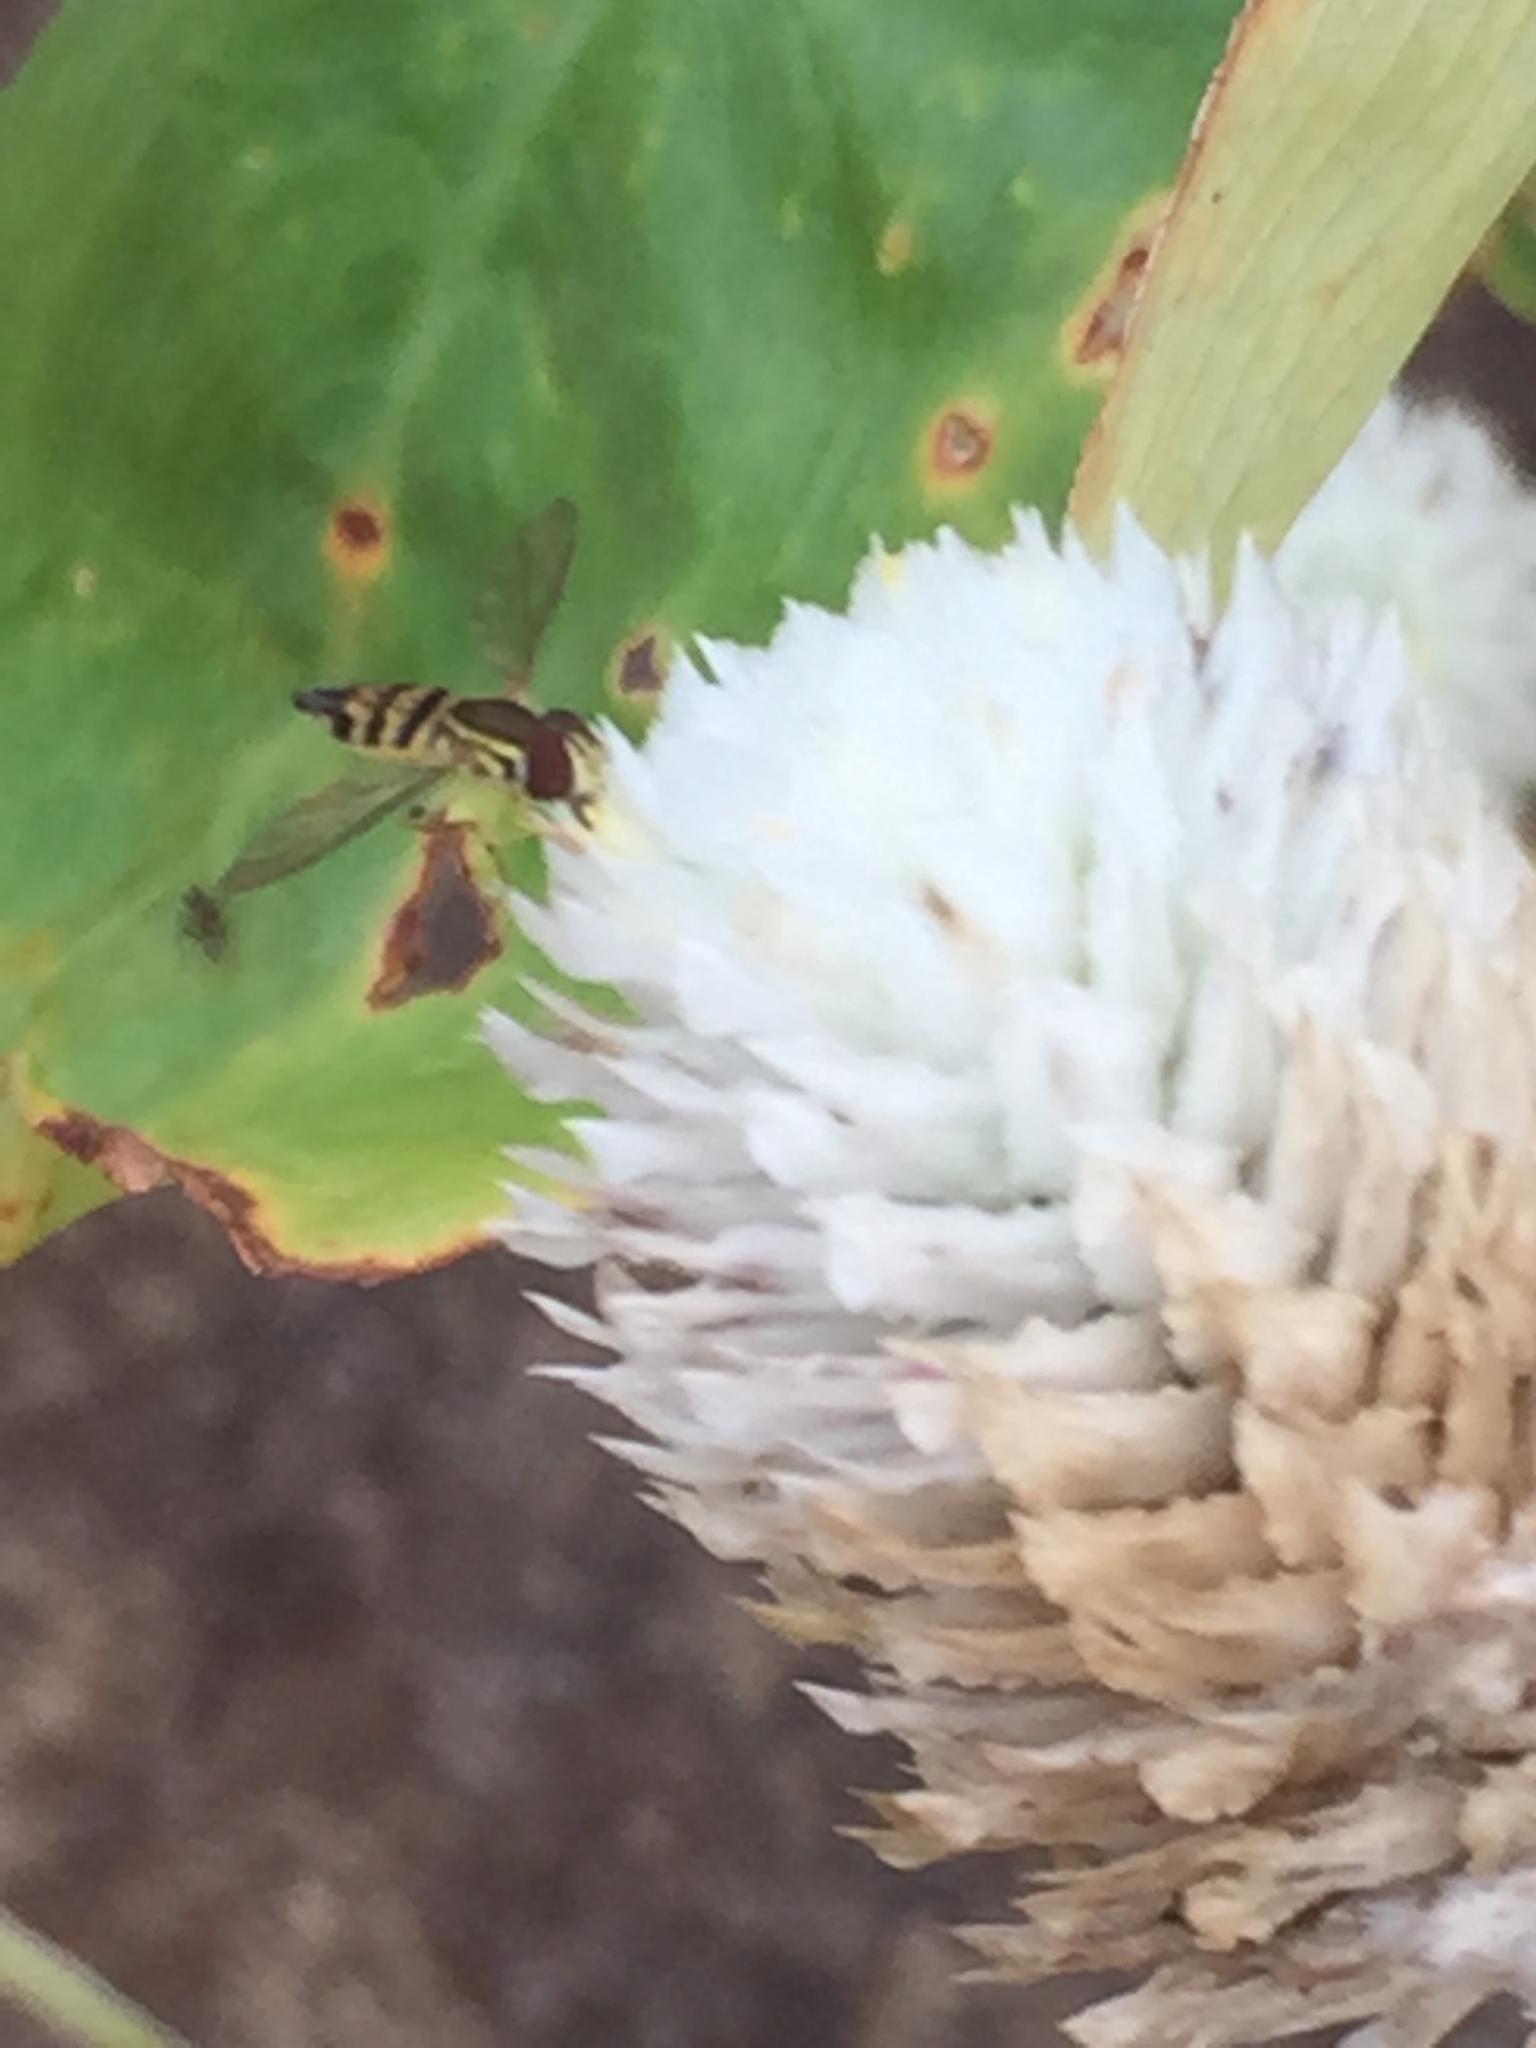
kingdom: Animalia
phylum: Arthropoda
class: Insecta
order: Diptera
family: Syrphidae
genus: Toxomerus
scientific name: Toxomerus geminatus
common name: Eastern calligrapher
